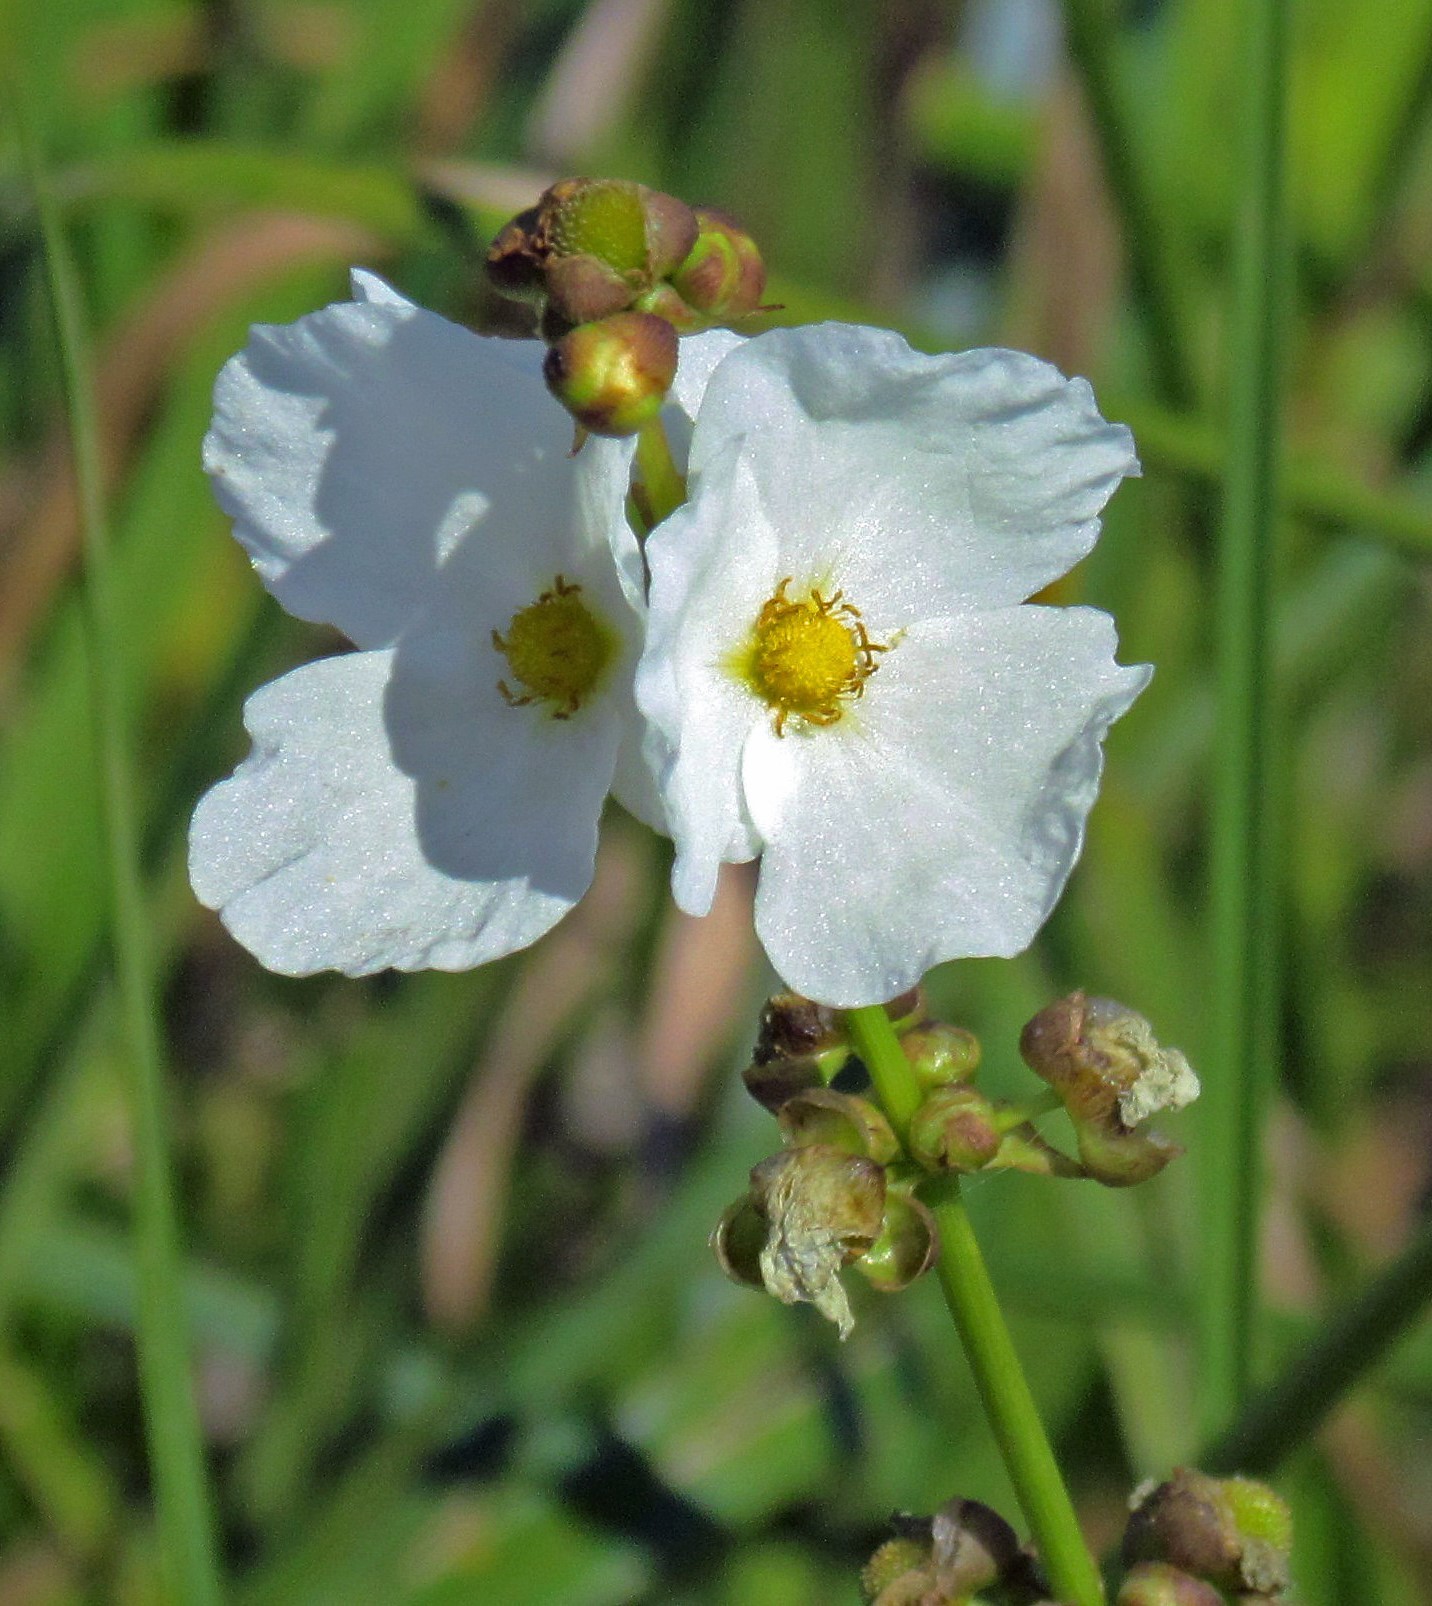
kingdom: Plantae
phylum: Tracheophyta
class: Liliopsida
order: Alismatales
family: Alismataceae
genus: Aquarius
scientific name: Aquarius grandiflorus
